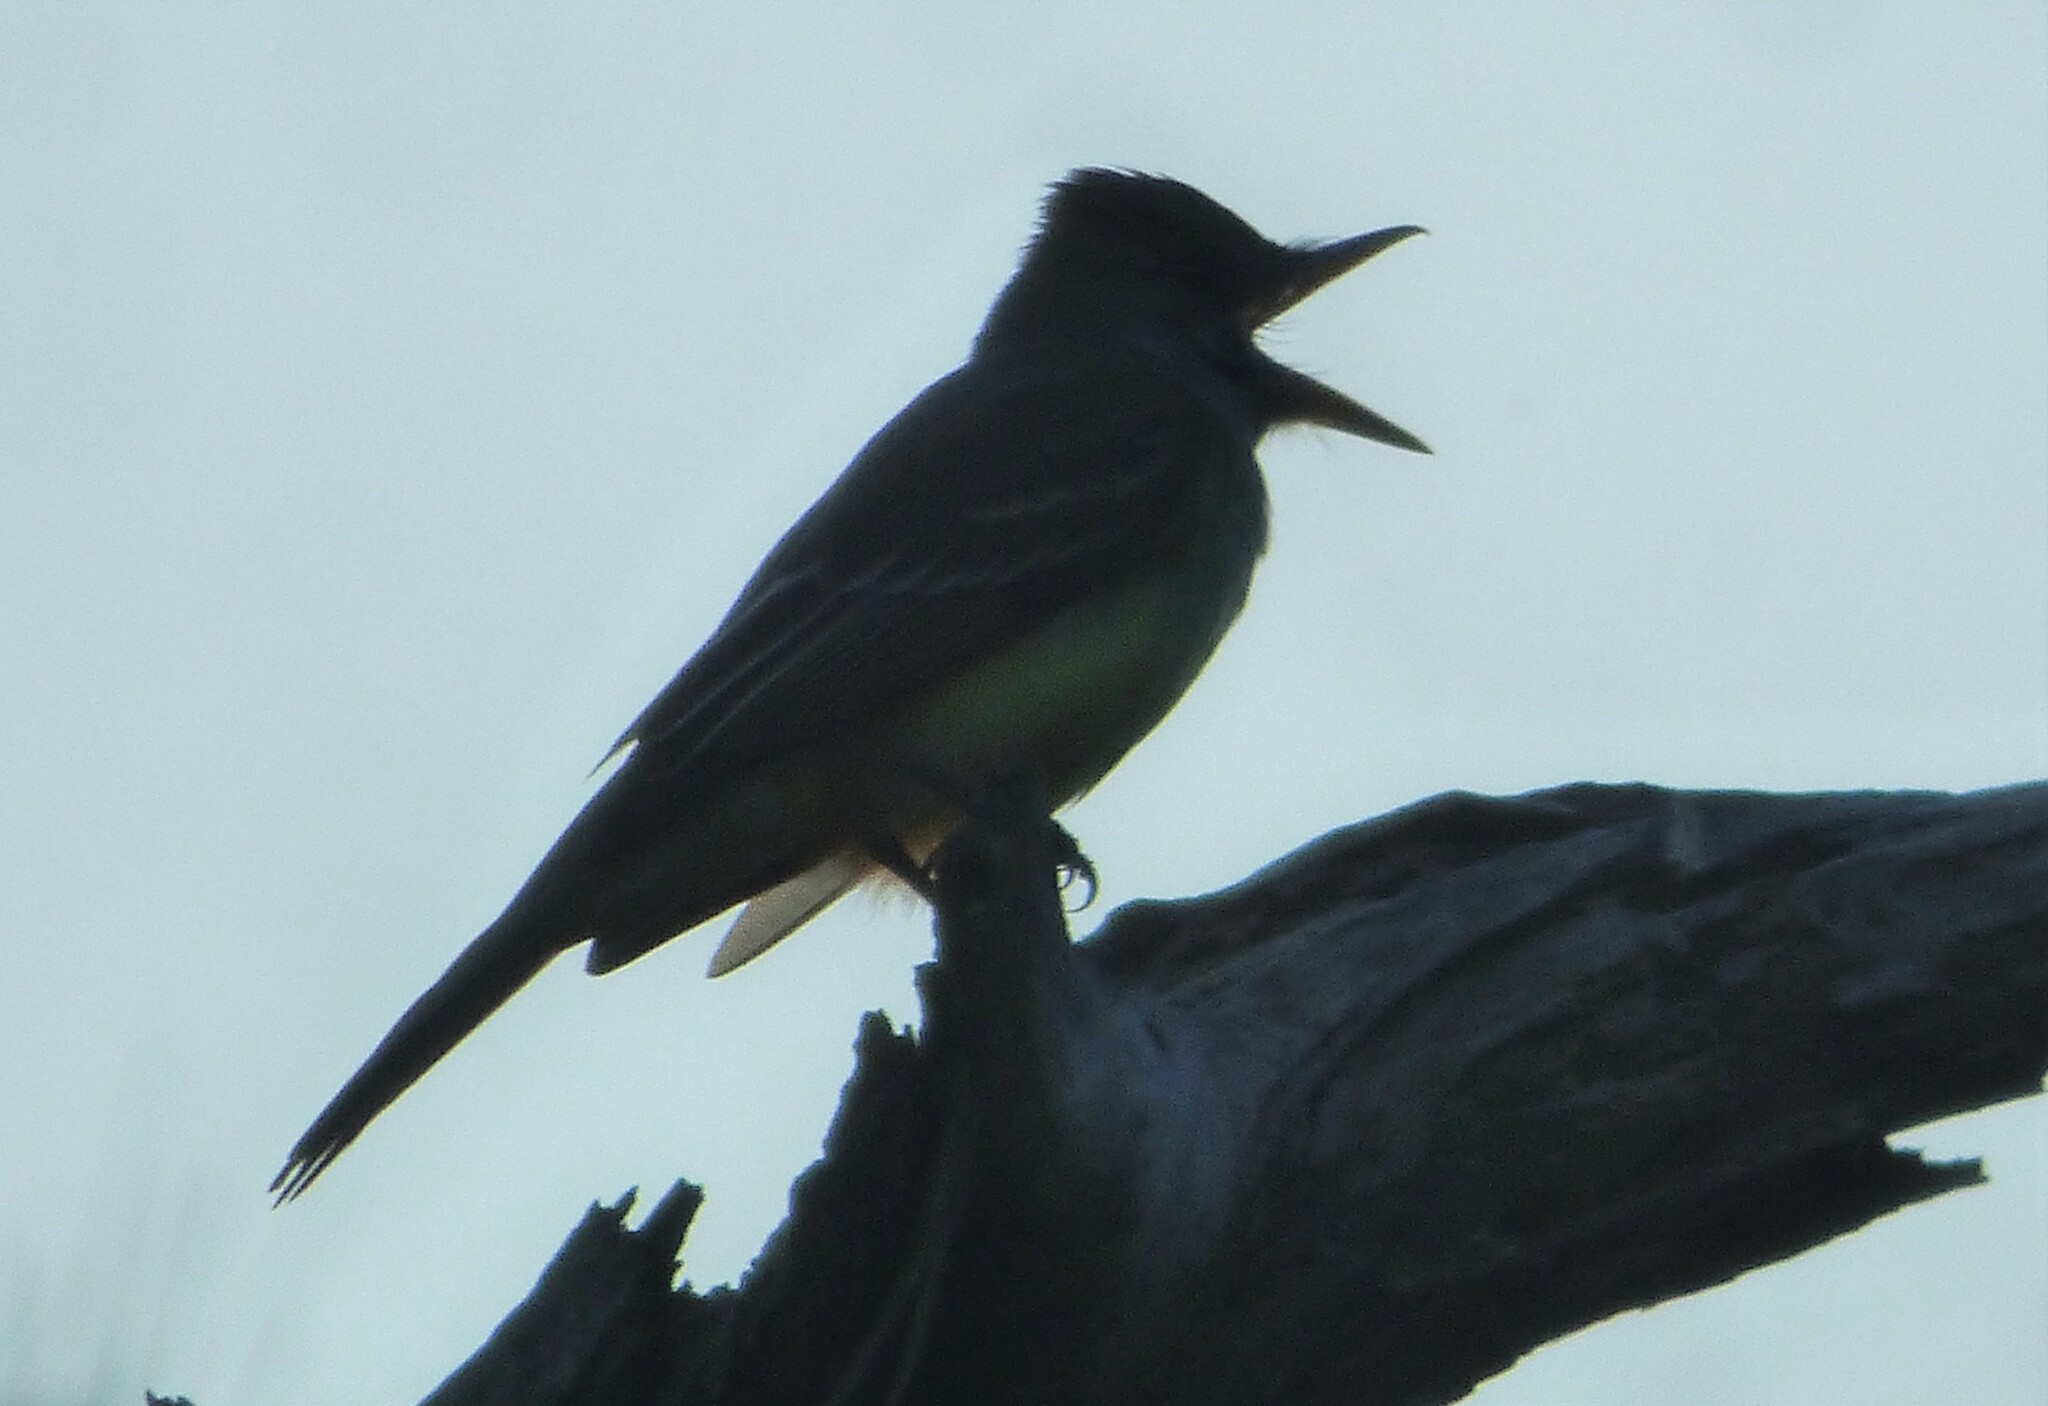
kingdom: Animalia
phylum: Chordata
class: Aves
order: Passeriformes
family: Tyrannidae
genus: Myiarchus
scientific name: Myiarchus crinitus
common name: Great crested flycatcher
